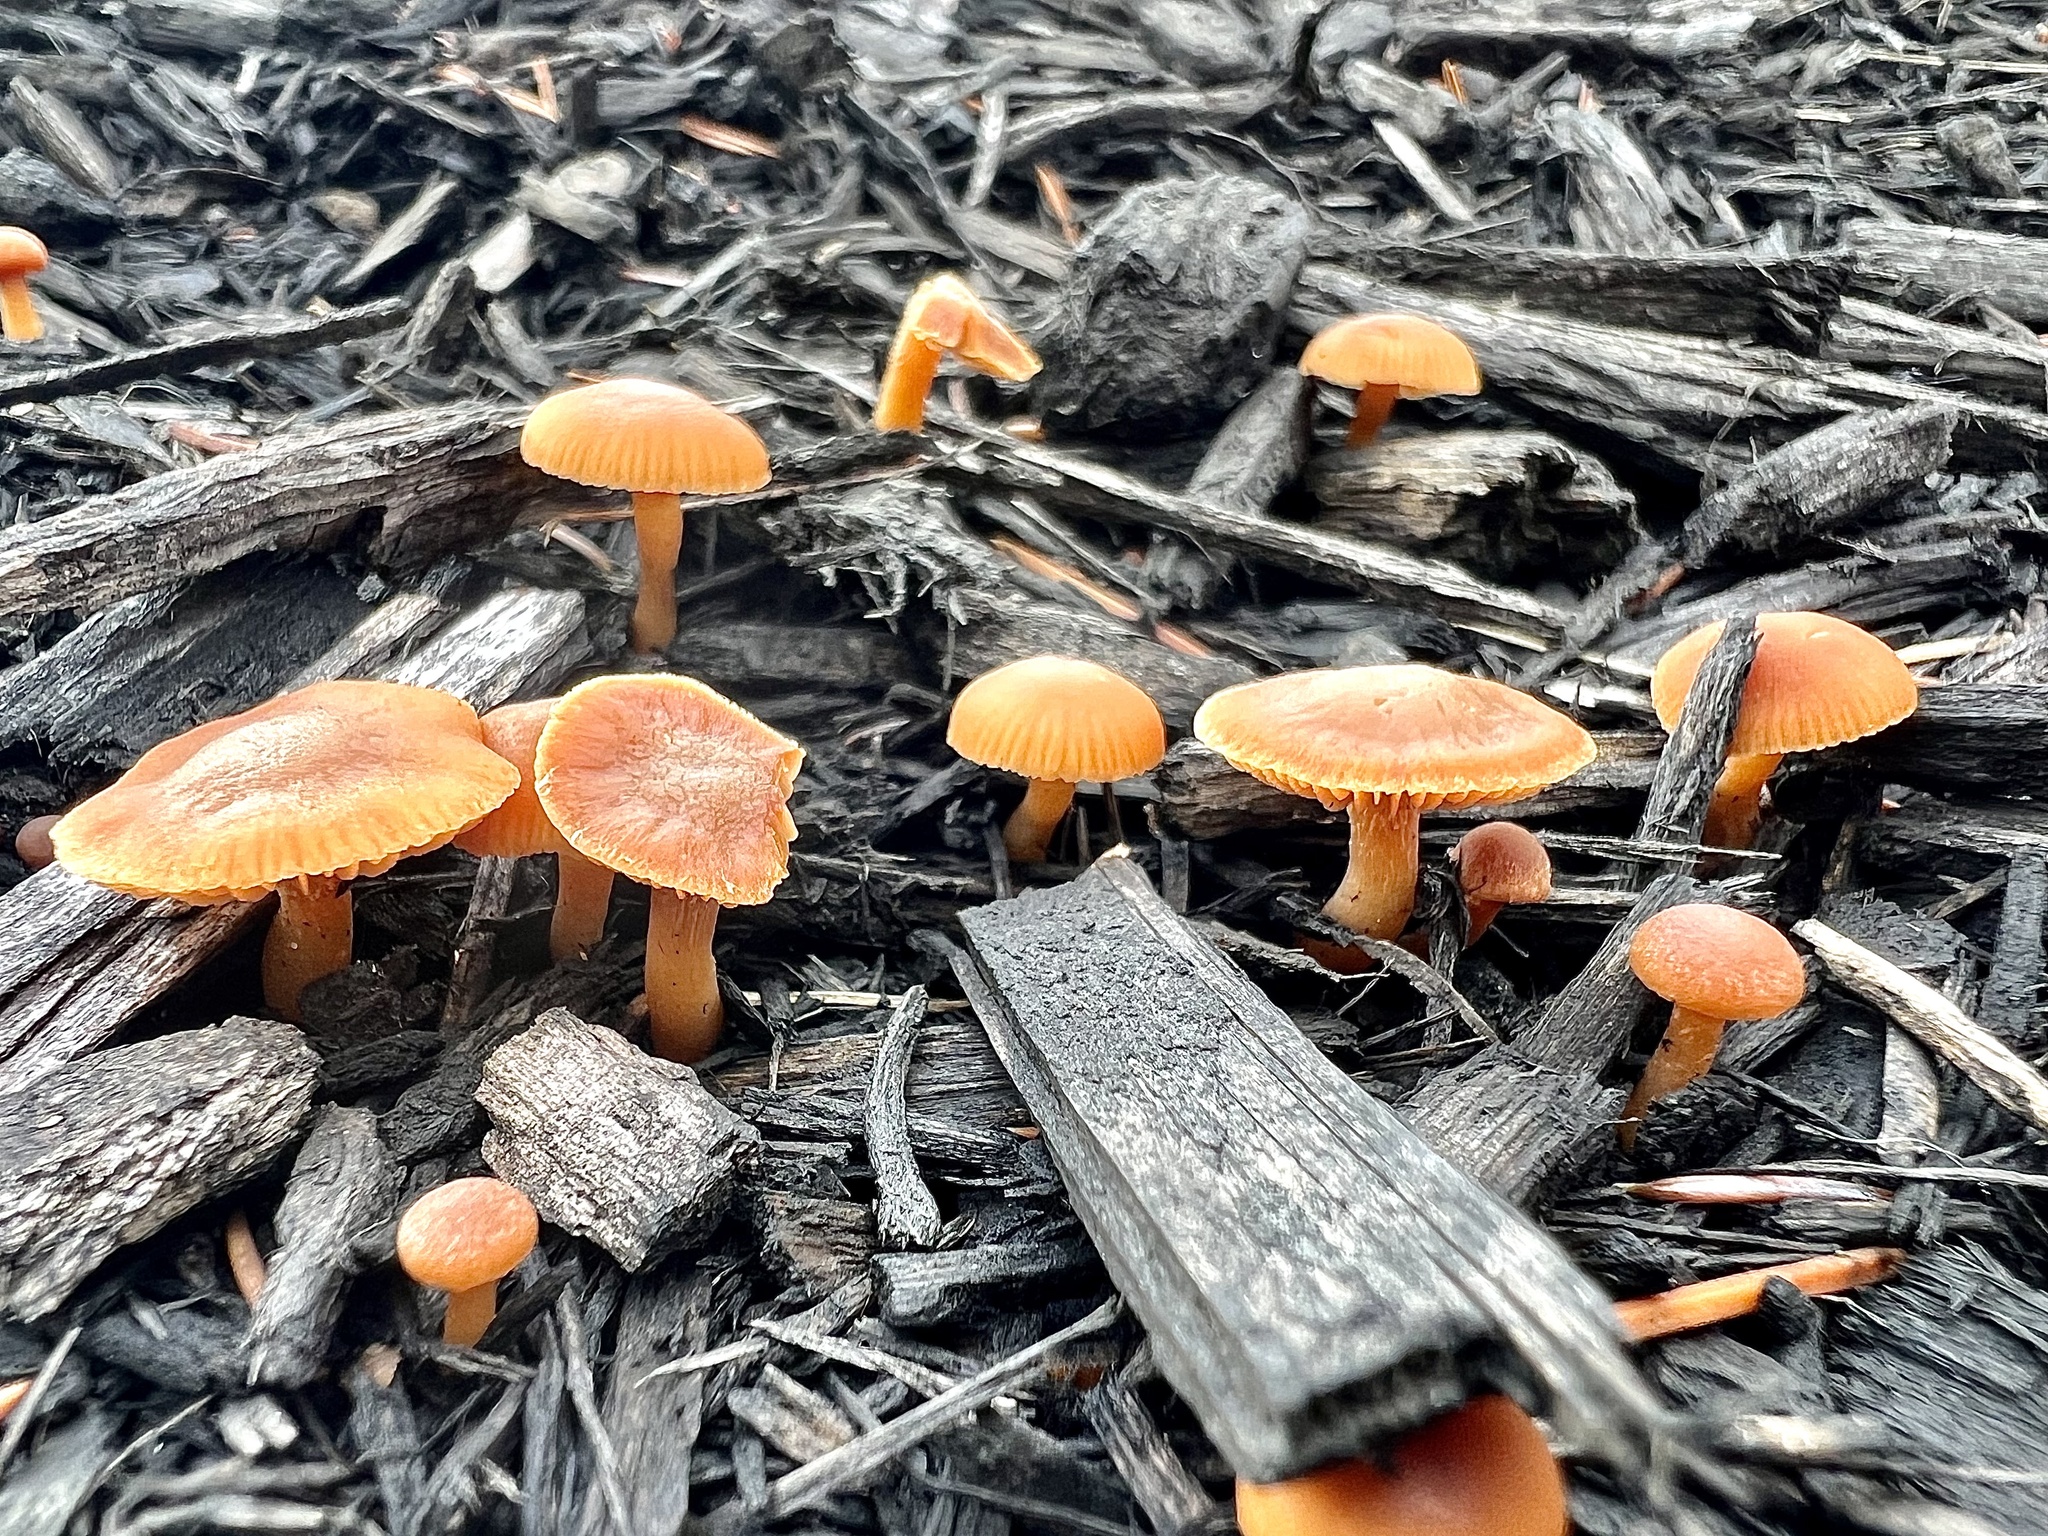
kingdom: Fungi
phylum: Basidiomycota
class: Agaricomycetes
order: Agaricales
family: Tubariaceae
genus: Tubaria
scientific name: Tubaria furfuracea
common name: Scurfy twiglet
